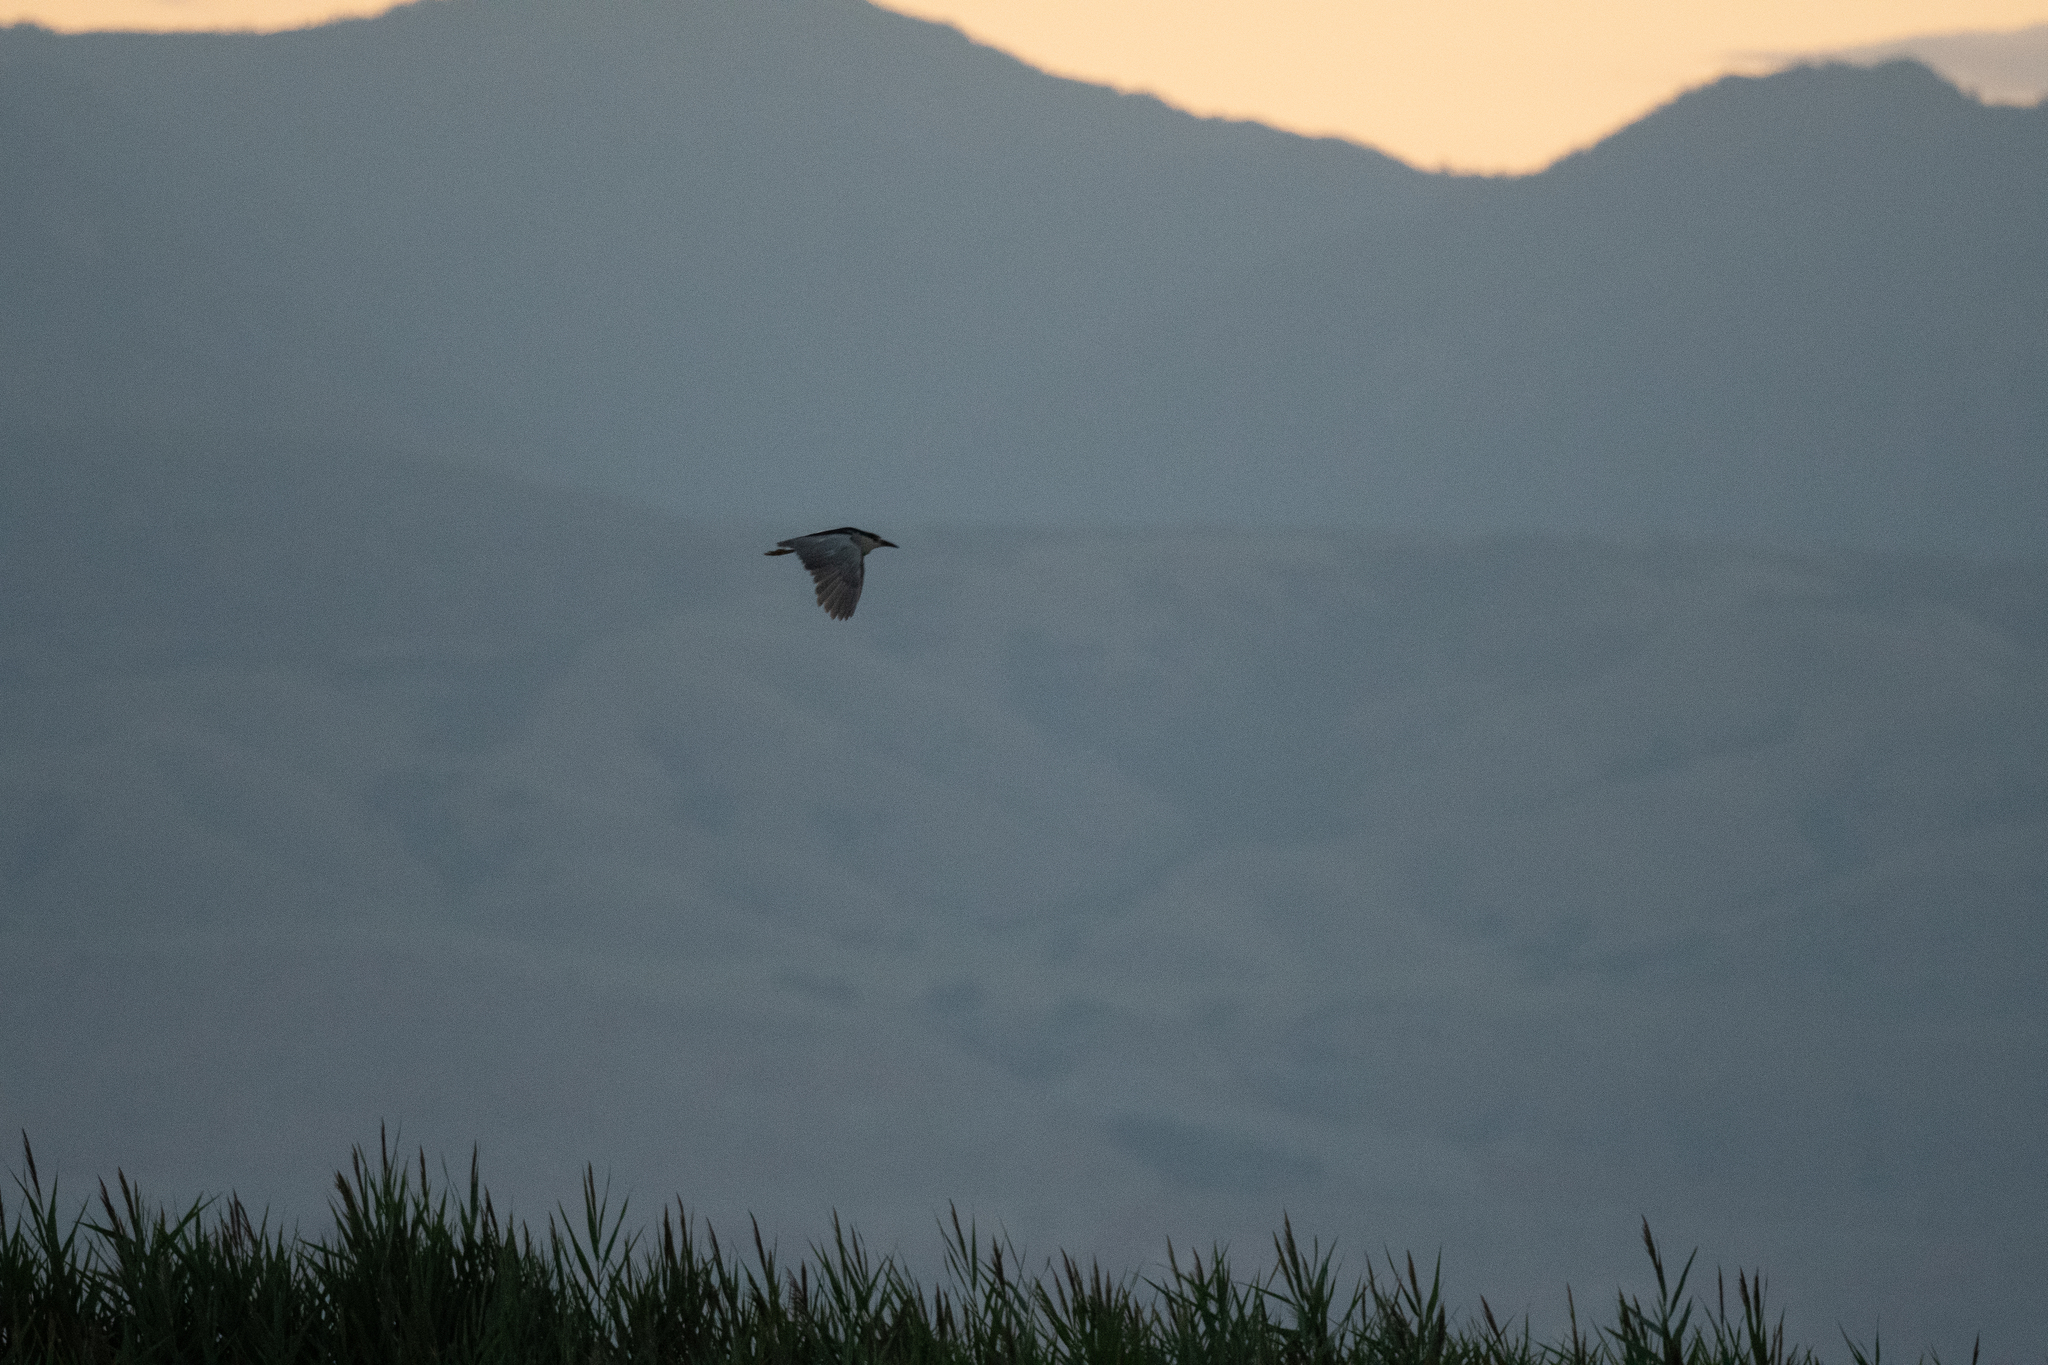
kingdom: Animalia
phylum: Chordata
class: Aves
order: Pelecaniformes
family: Ardeidae
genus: Nycticorax
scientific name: Nycticorax nycticorax
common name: Black-crowned night heron
